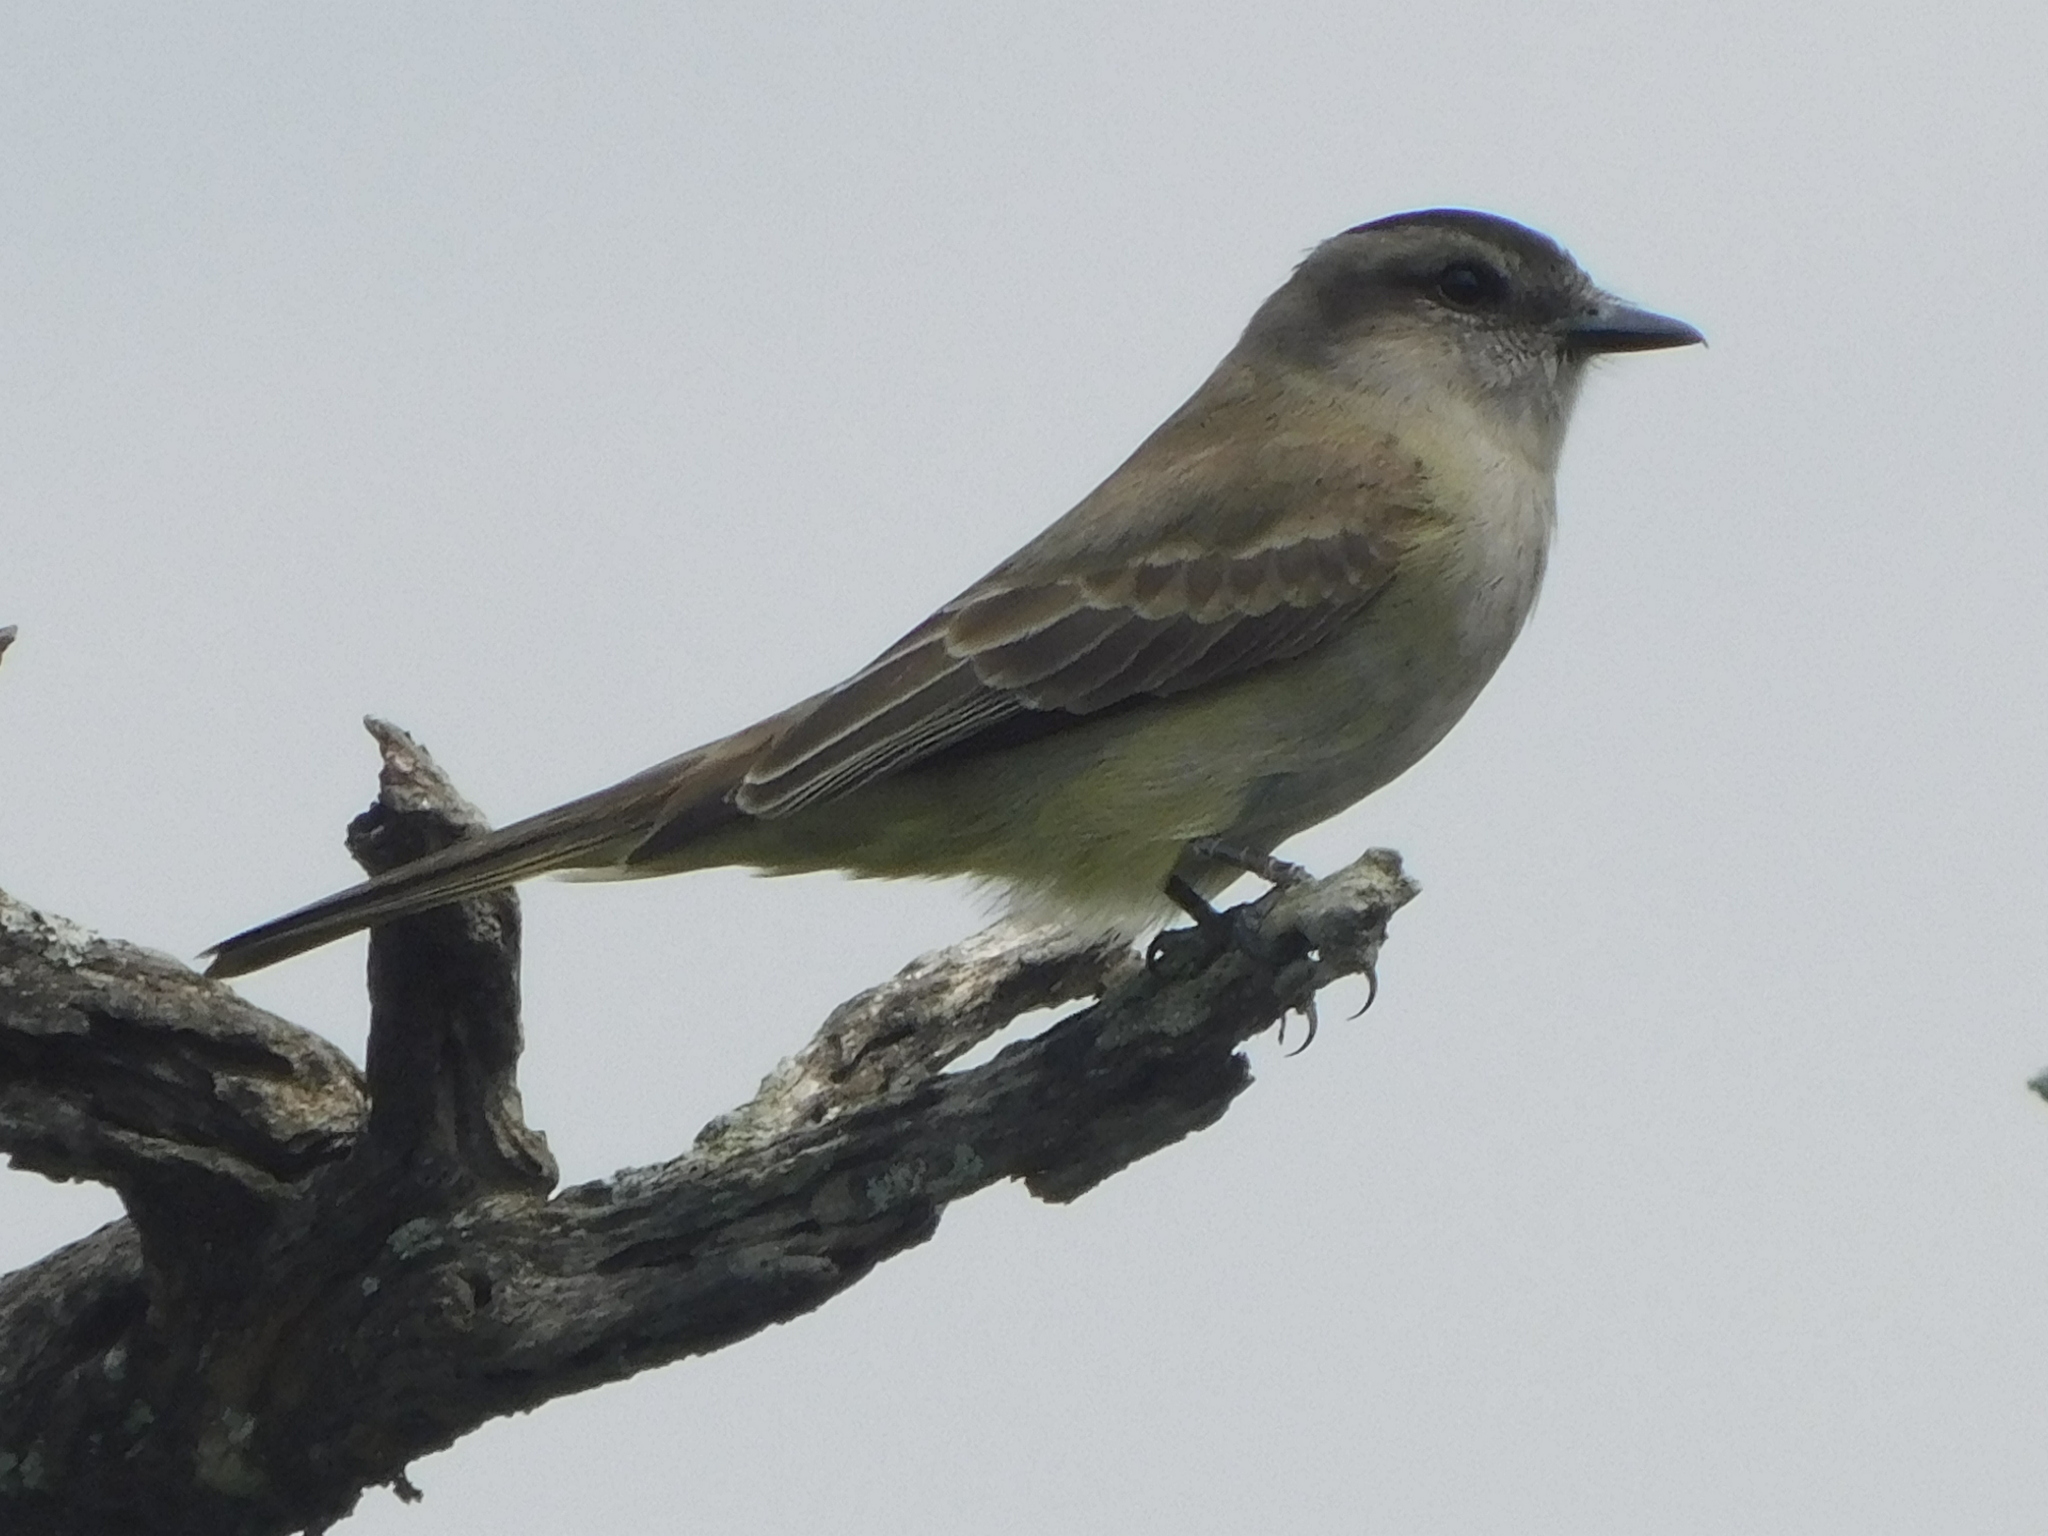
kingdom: Animalia
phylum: Chordata
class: Aves
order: Passeriformes
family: Tyrannidae
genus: Empidonomus
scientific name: Empidonomus aurantioatrocristatus
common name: Crowned slaty flycatcher
